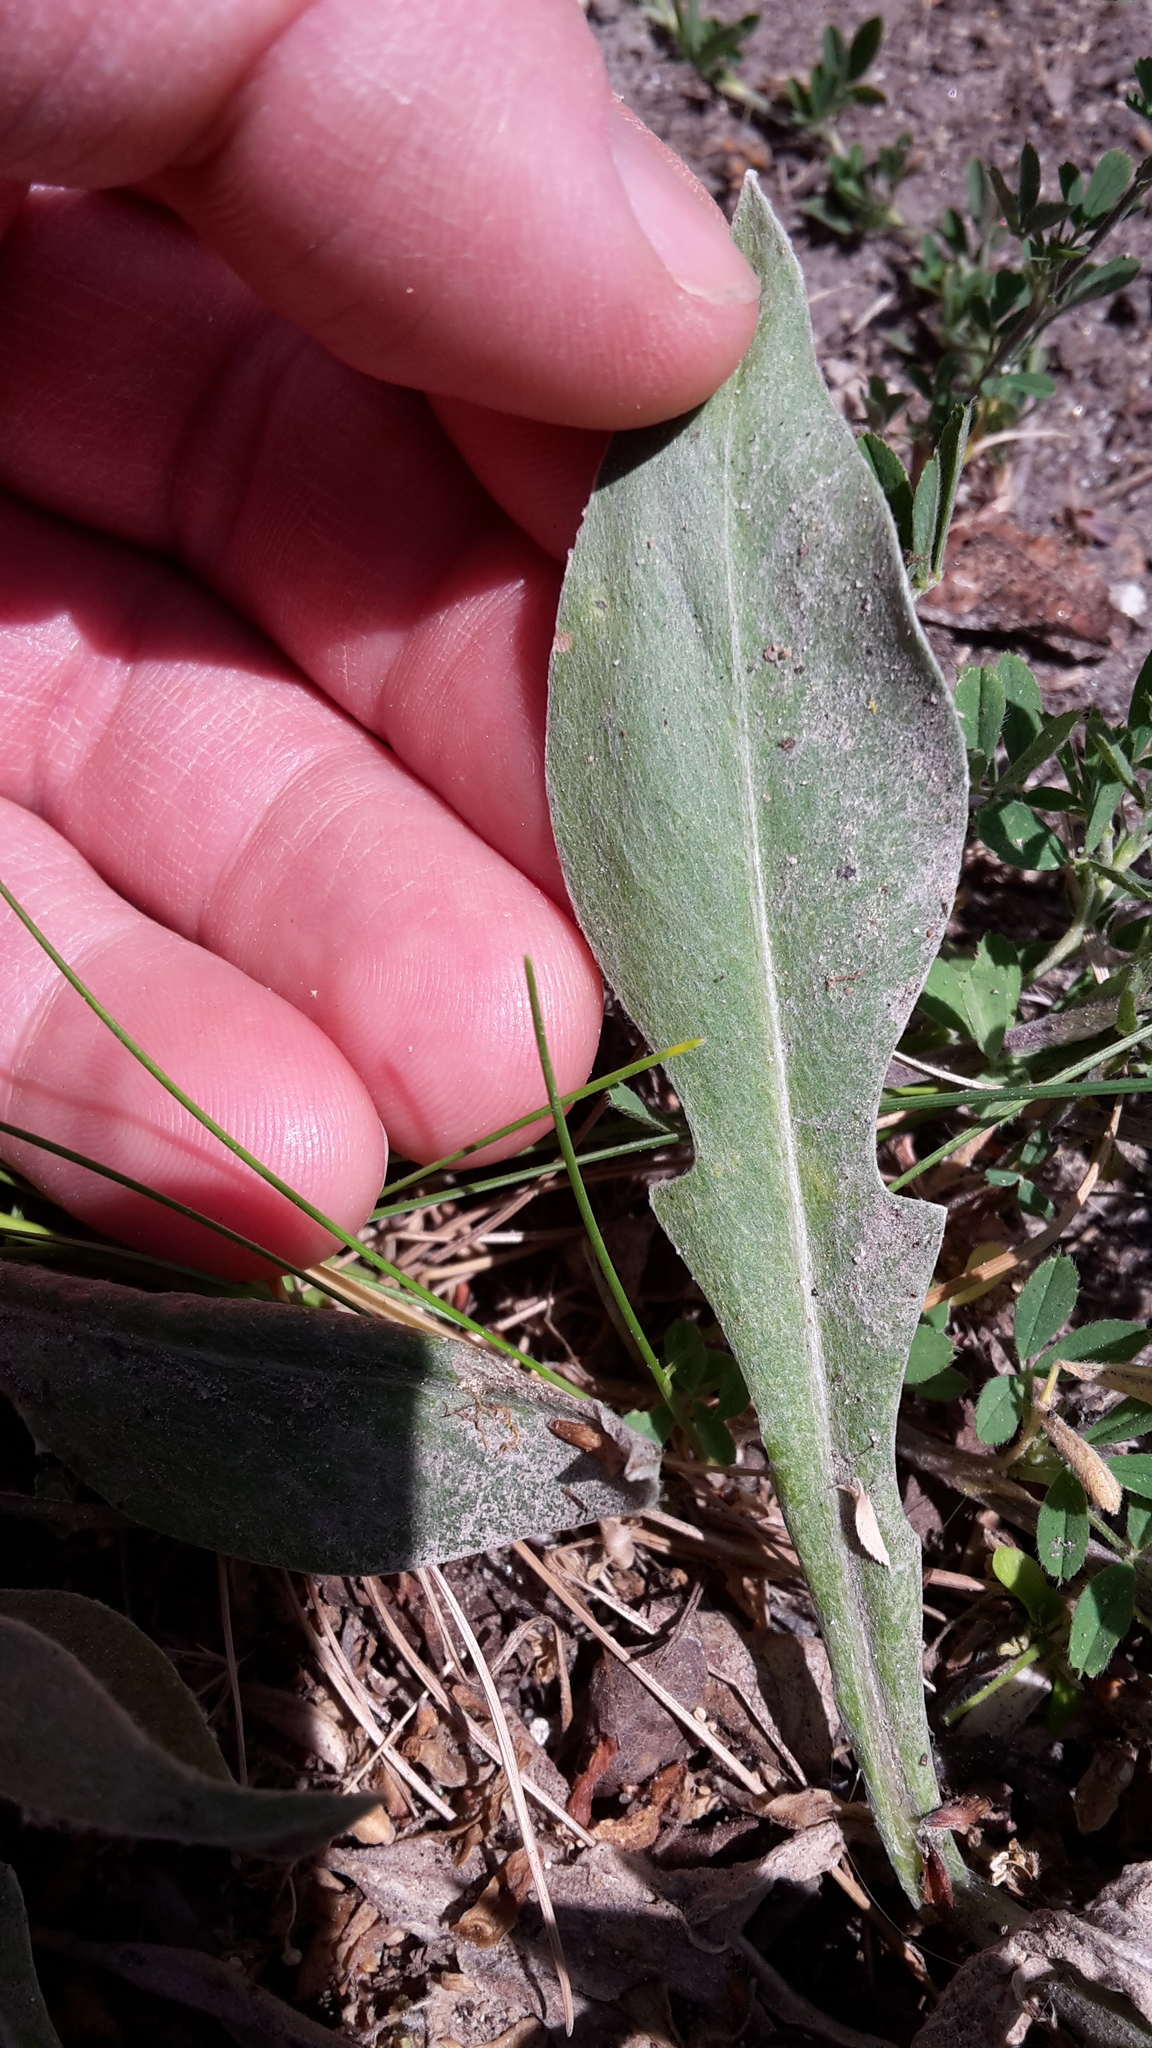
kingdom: Plantae
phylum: Tracheophyta
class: Magnoliopsida
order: Asterales
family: Asteraceae
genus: Centaurea
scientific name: Centaurea triumfettii
